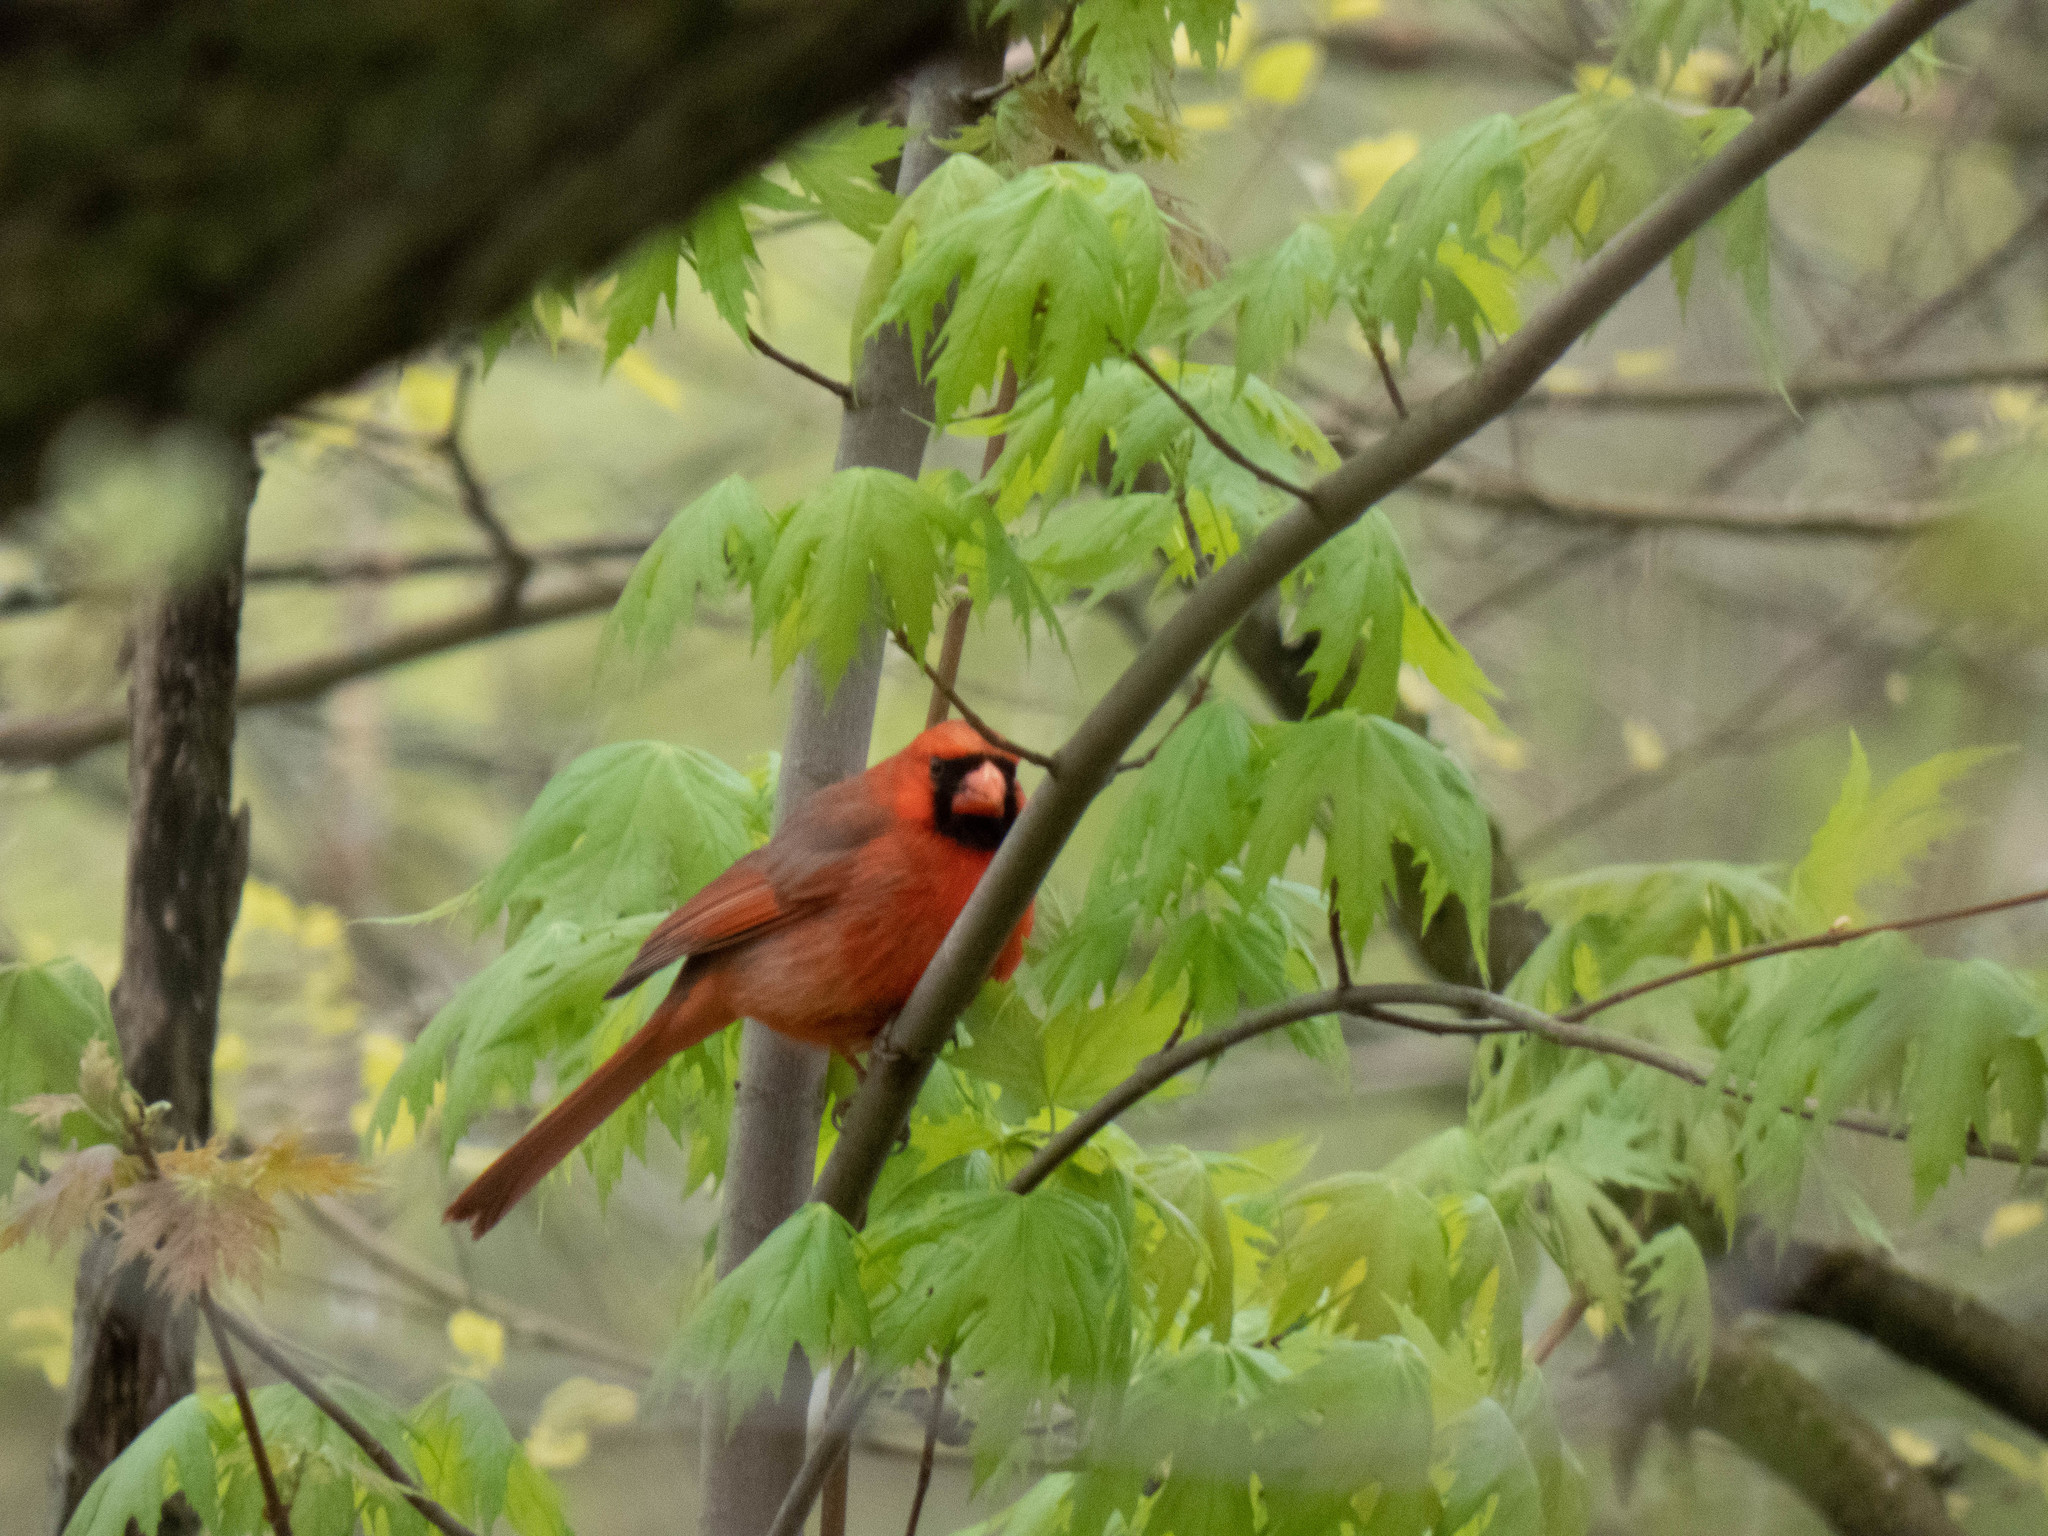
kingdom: Animalia
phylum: Chordata
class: Aves
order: Passeriformes
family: Cardinalidae
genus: Cardinalis
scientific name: Cardinalis cardinalis
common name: Northern cardinal
